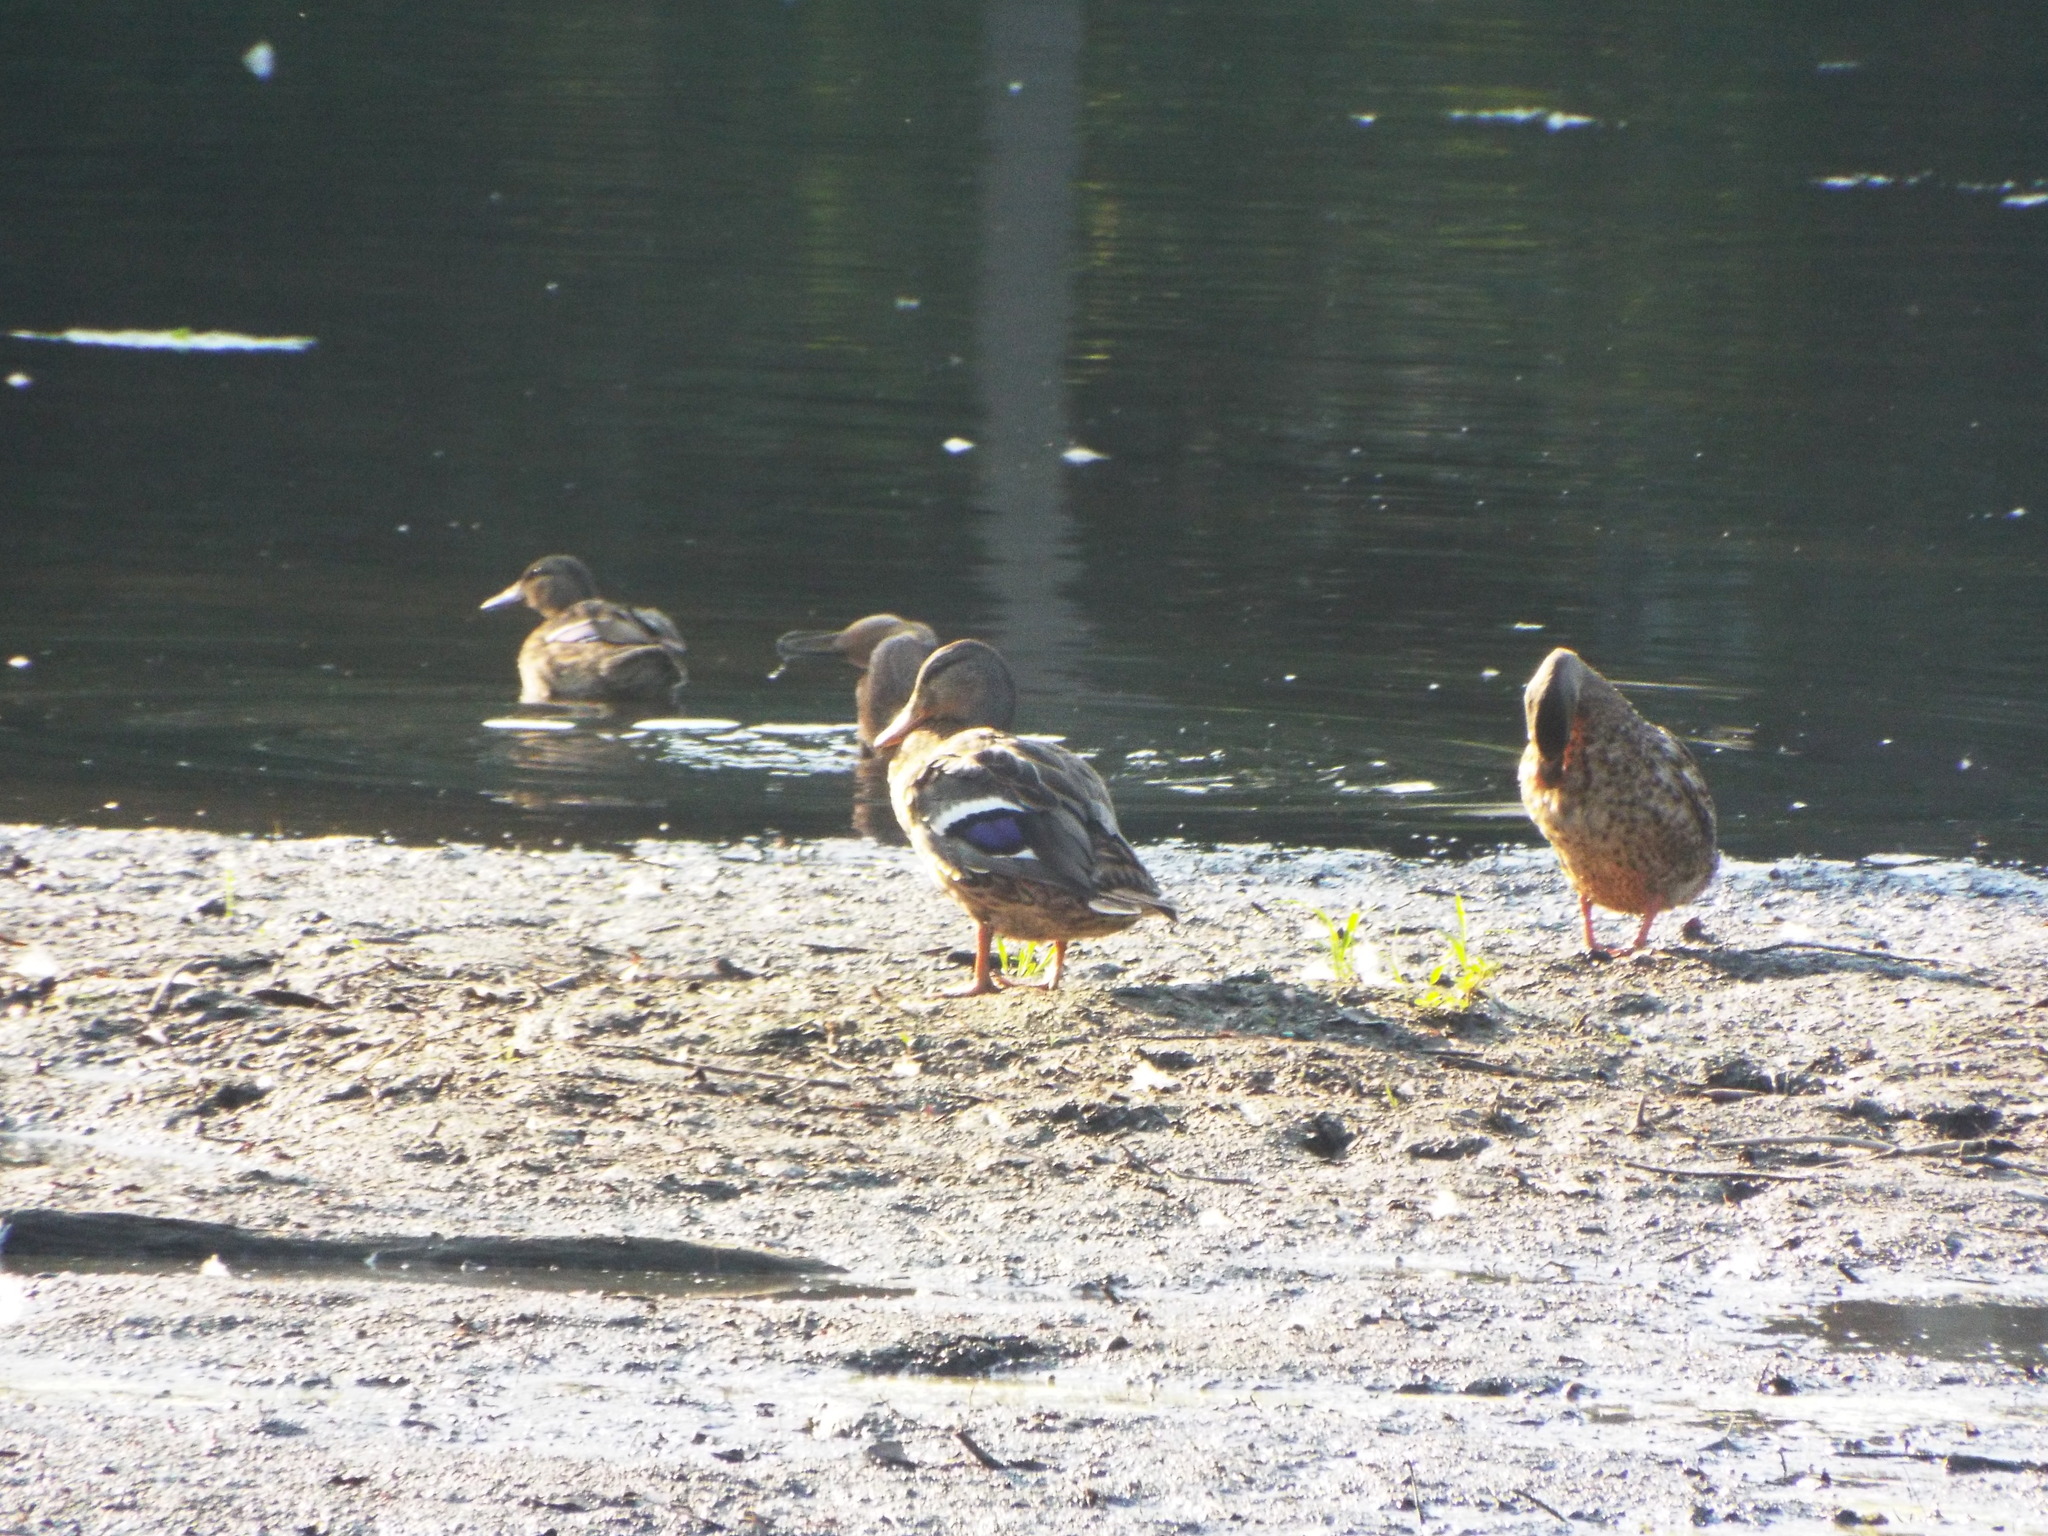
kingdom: Animalia
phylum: Chordata
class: Aves
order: Anseriformes
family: Anatidae
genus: Anas
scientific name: Anas platyrhynchos
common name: Mallard
